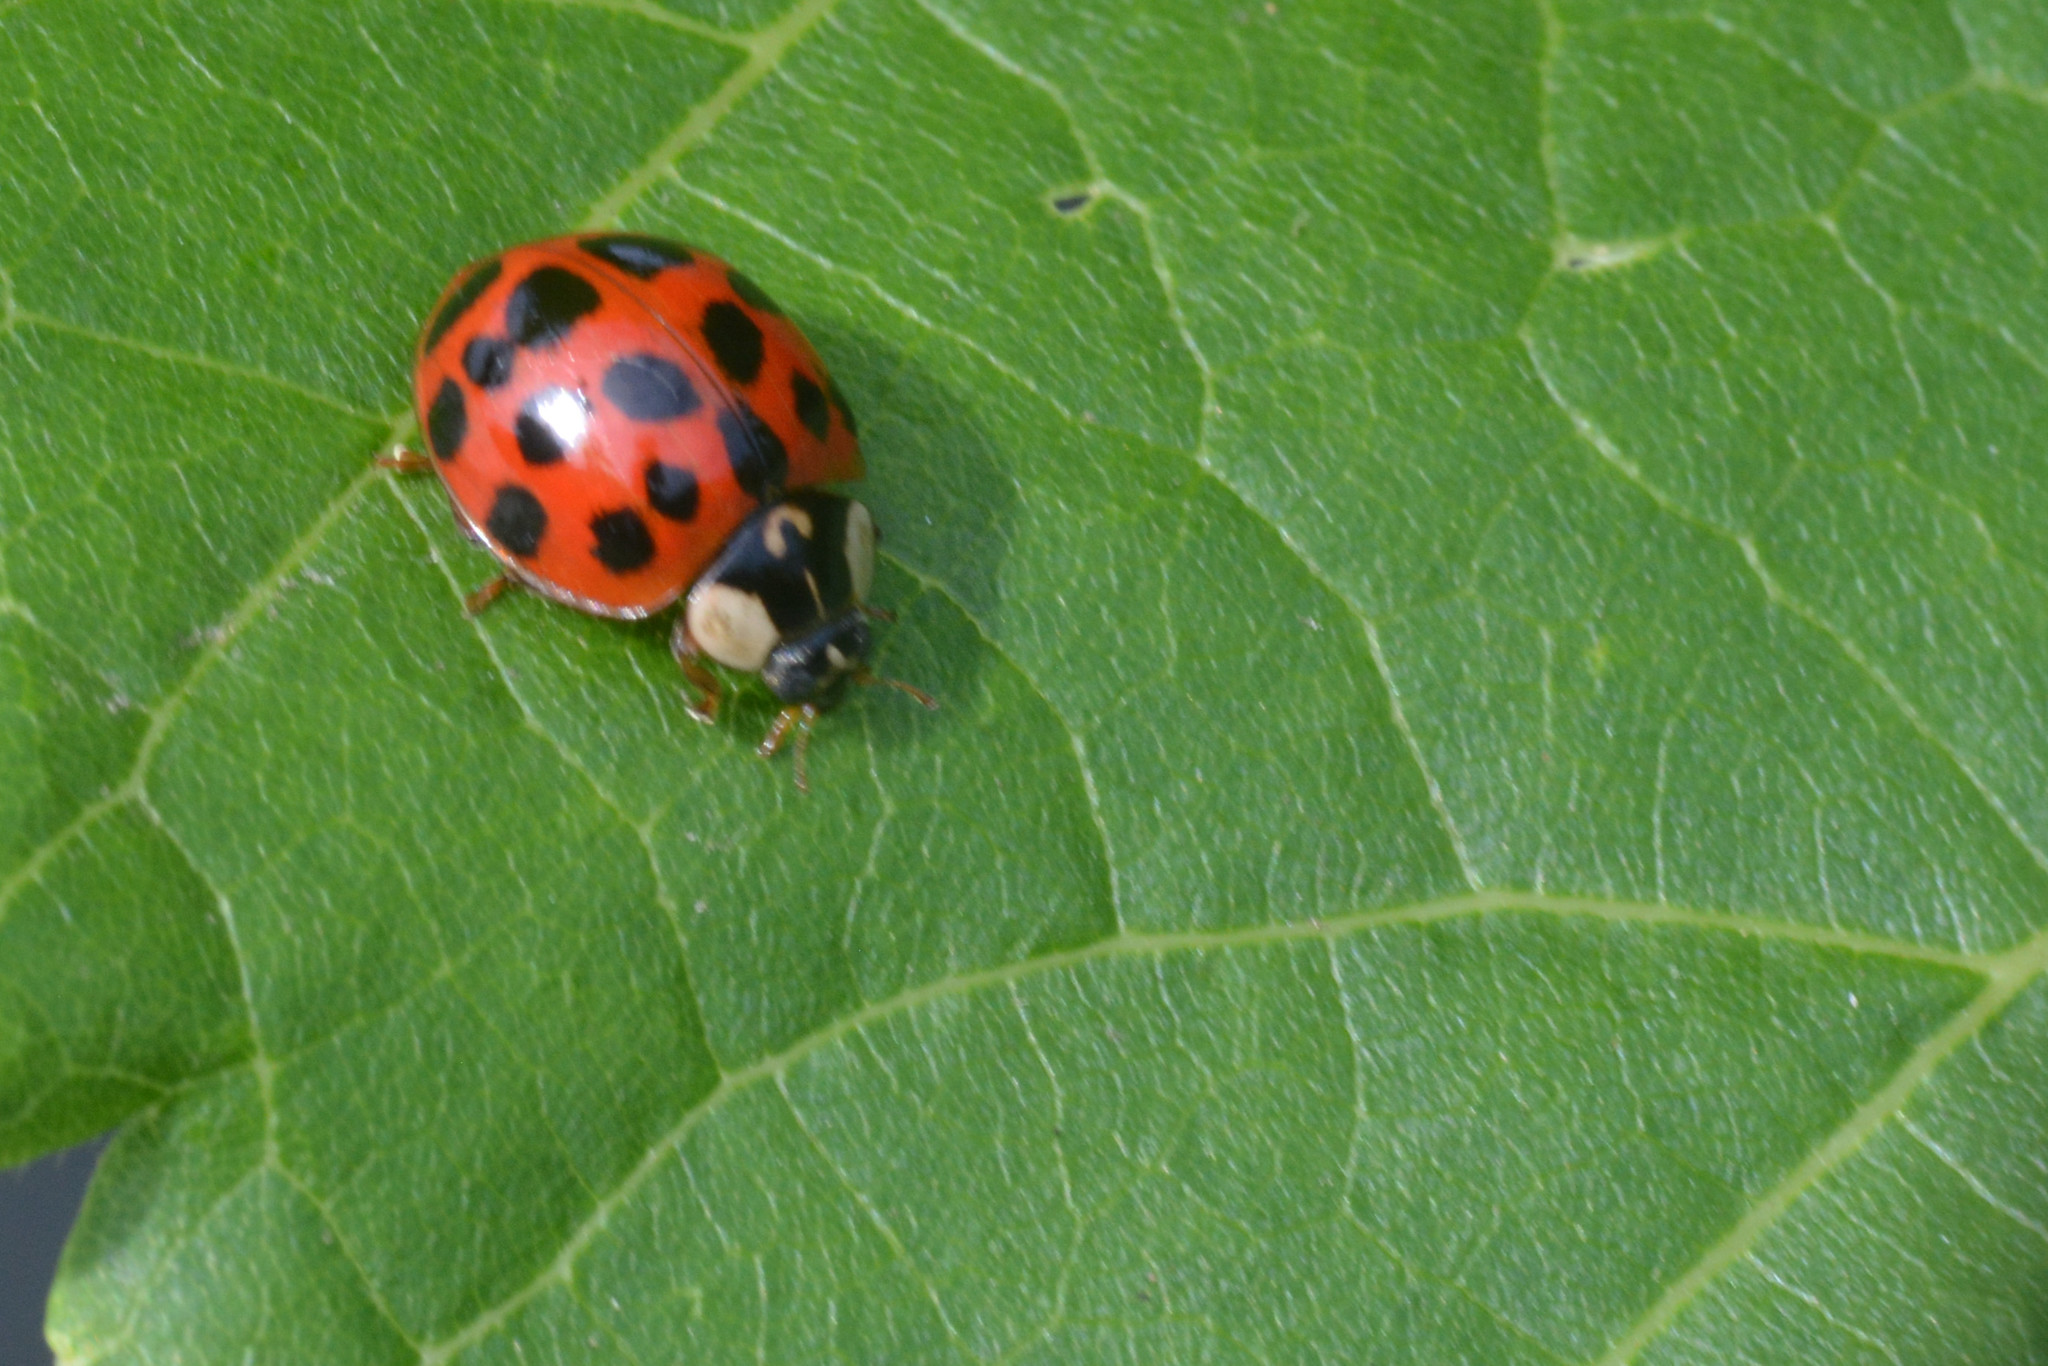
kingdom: Animalia
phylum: Arthropoda
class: Insecta
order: Coleoptera
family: Coccinellidae
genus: Harmonia
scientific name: Harmonia axyridis
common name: Harlequin ladybird
